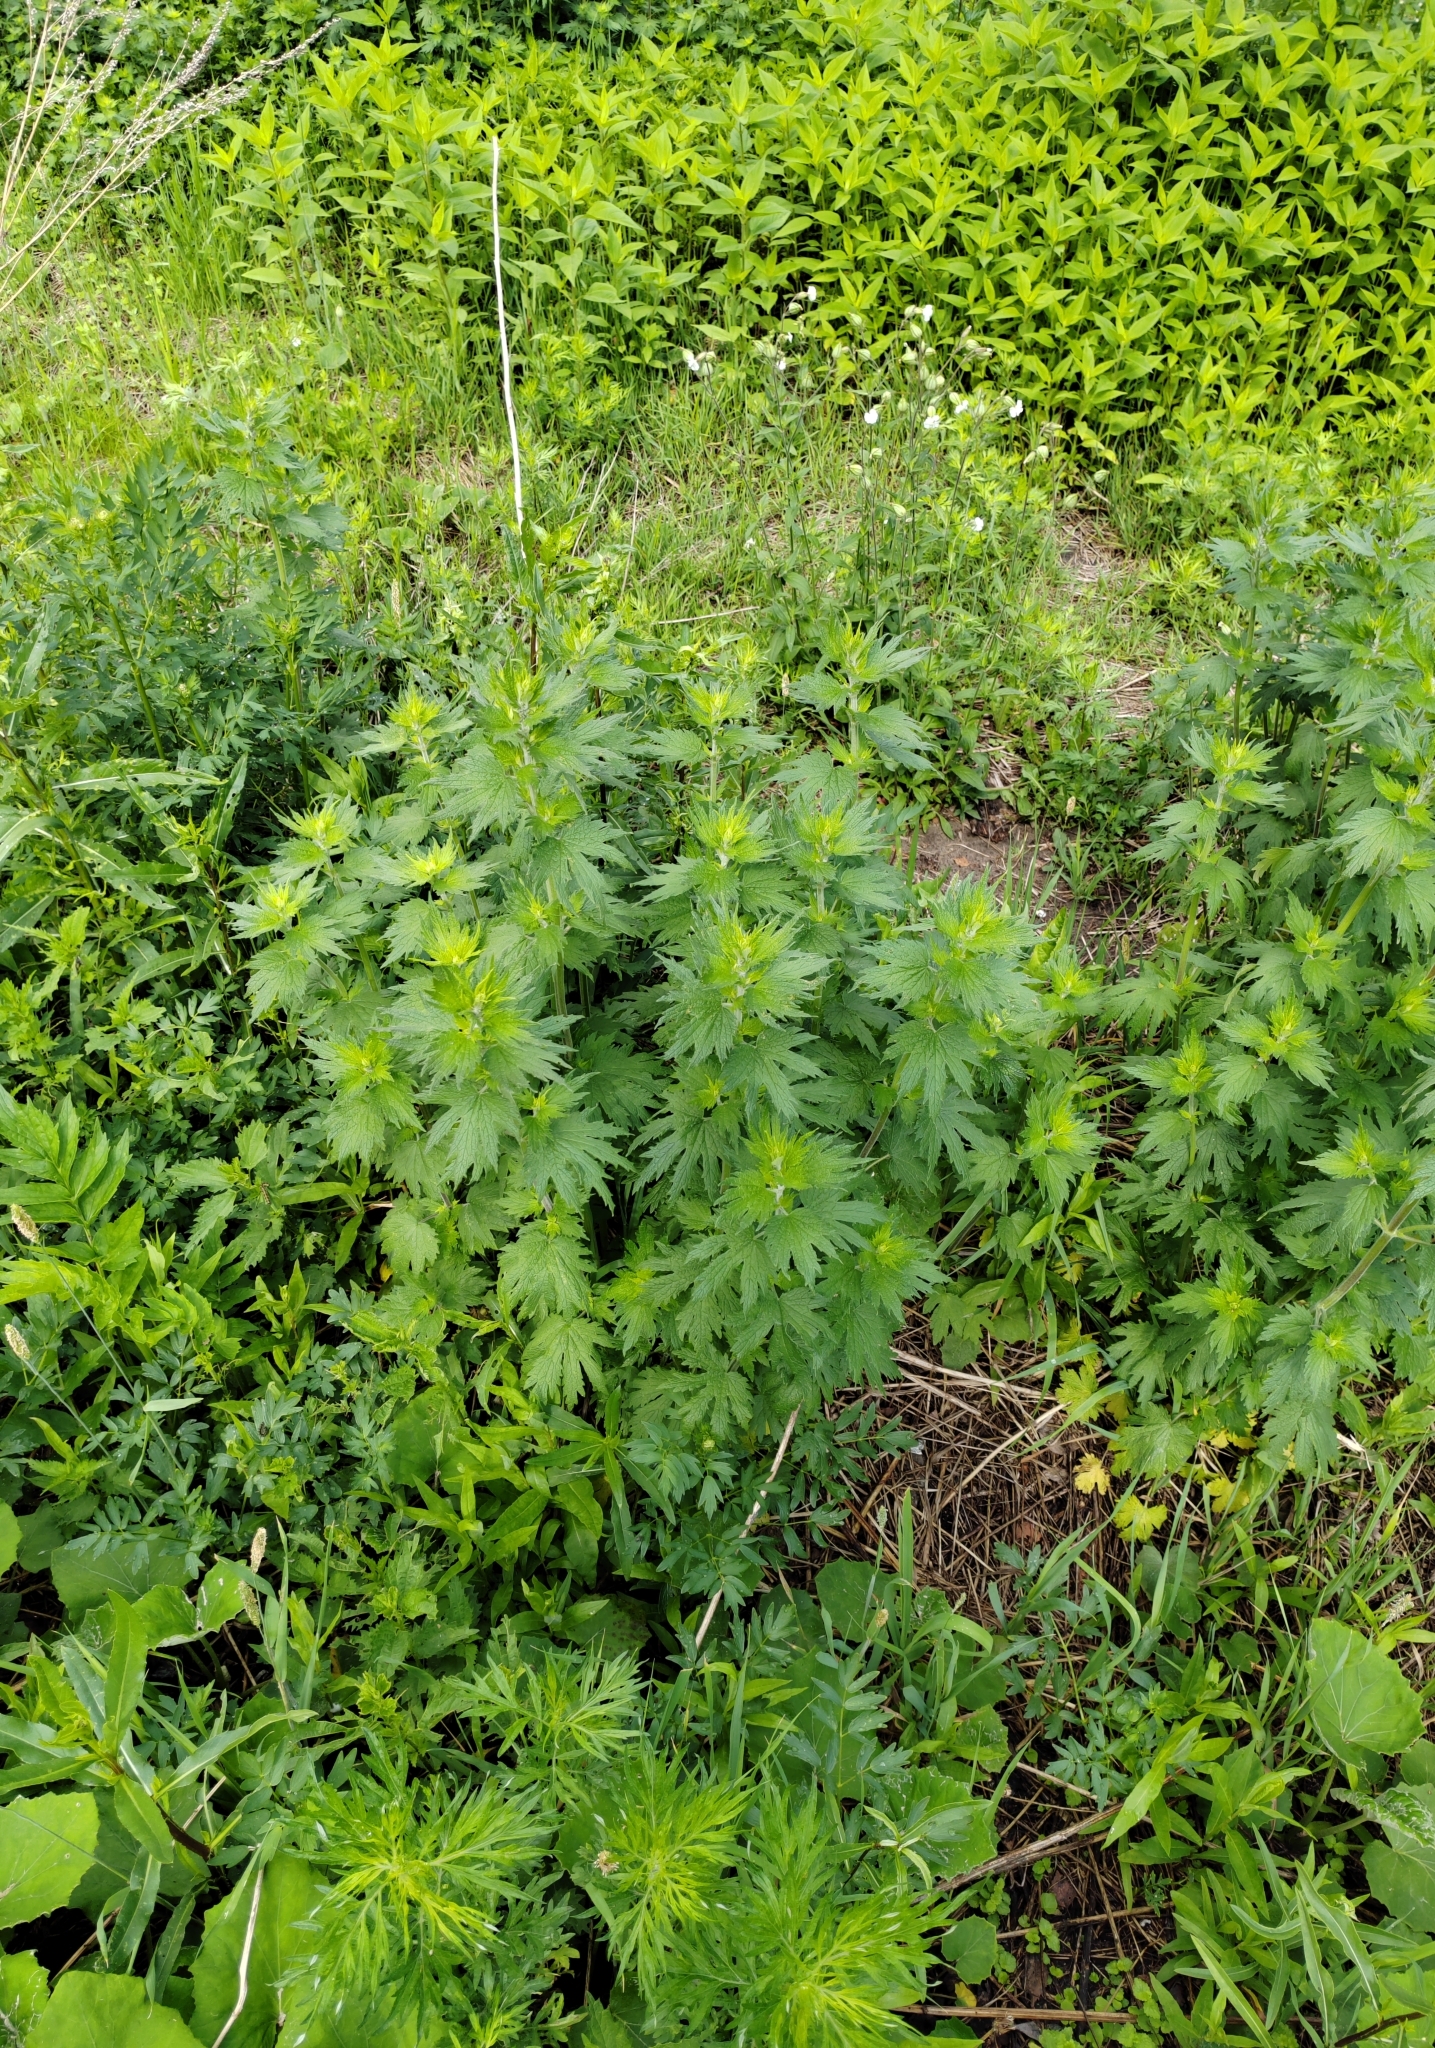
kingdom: Plantae
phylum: Tracheophyta
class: Magnoliopsida
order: Lamiales
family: Lamiaceae
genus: Leonurus
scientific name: Leonurus quinquelobatus
